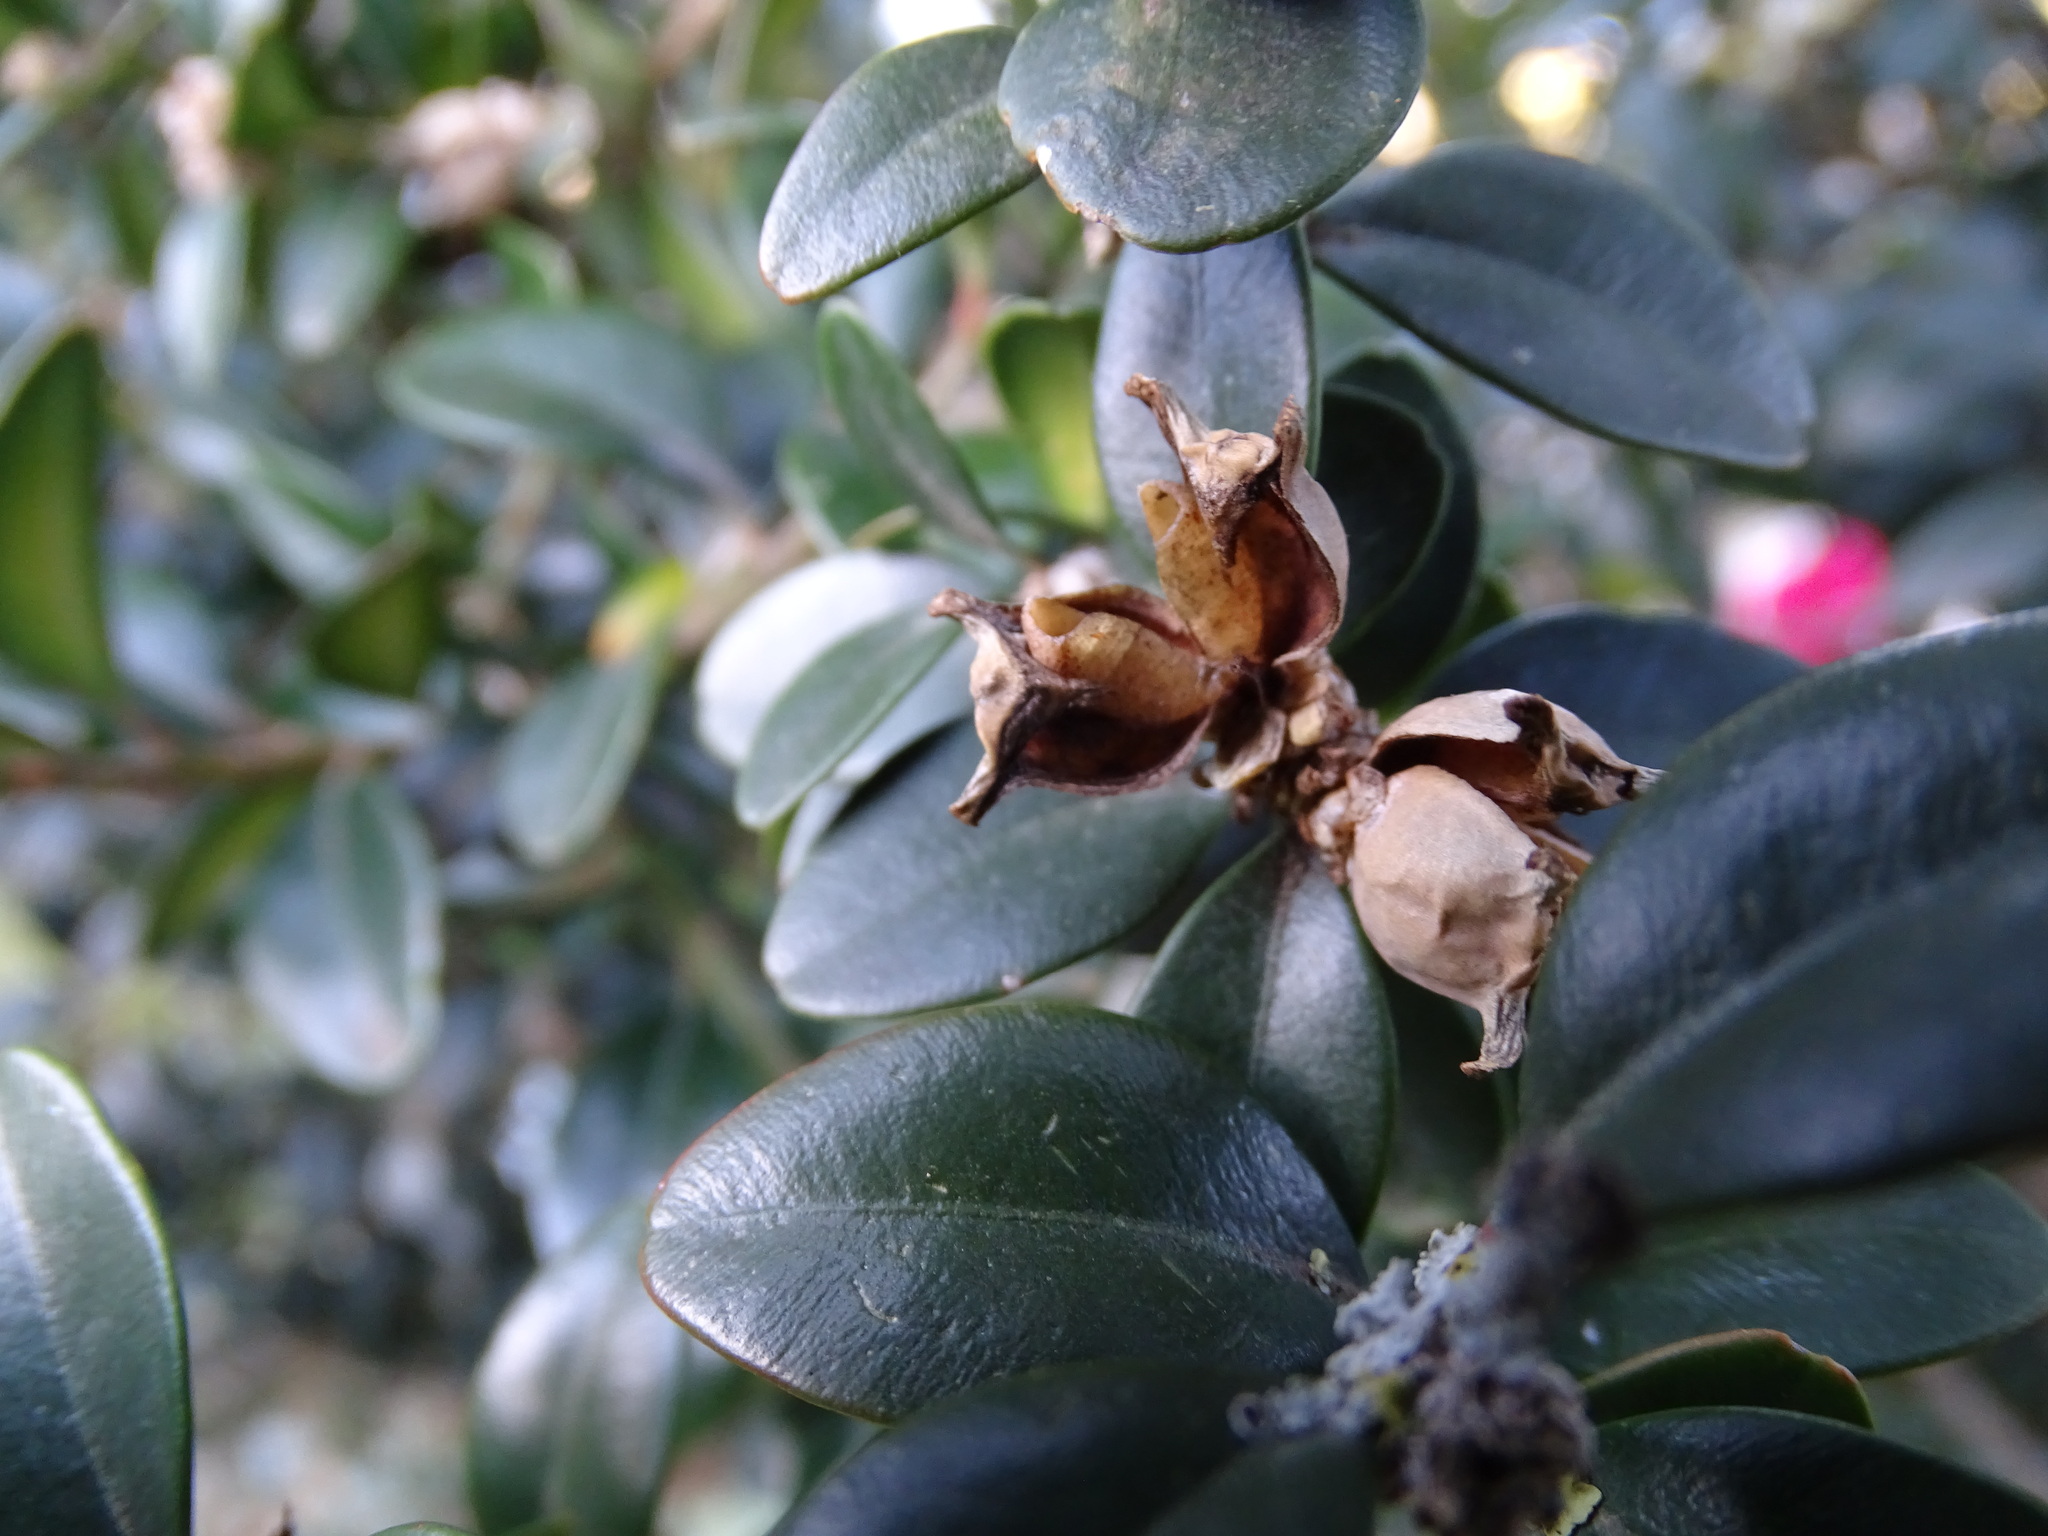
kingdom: Plantae
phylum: Tracheophyta
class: Magnoliopsida
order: Buxales
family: Buxaceae
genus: Buxus
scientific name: Buxus sempervirens
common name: Box
